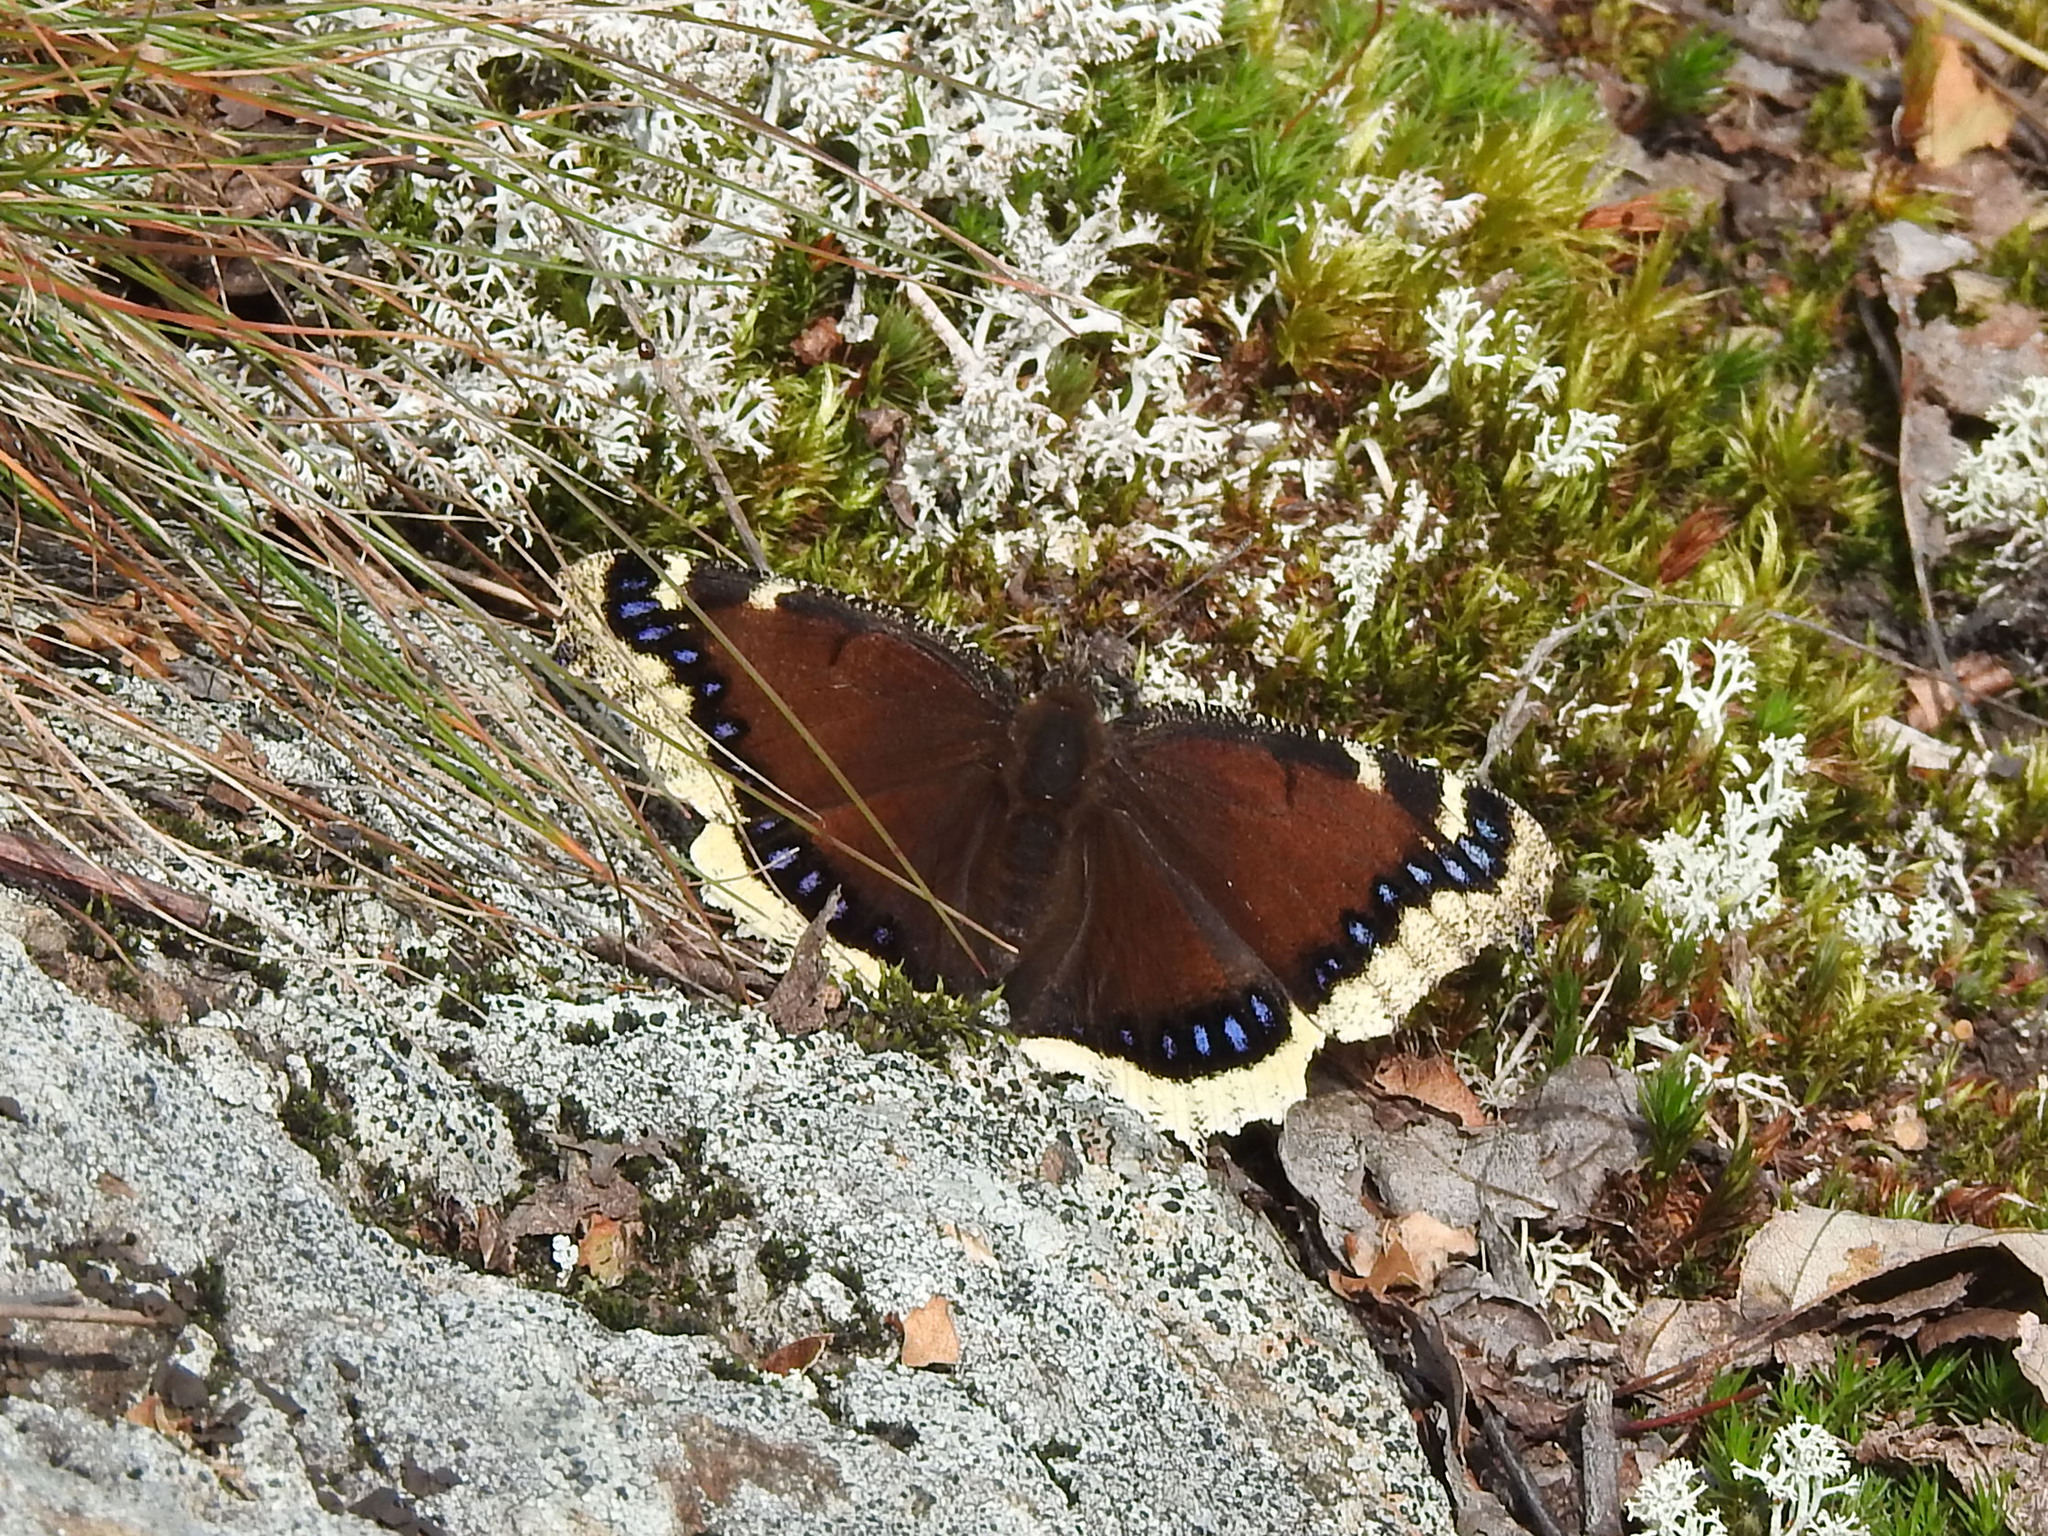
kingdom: Animalia
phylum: Arthropoda
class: Insecta
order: Lepidoptera
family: Nymphalidae
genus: Nymphalis
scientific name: Nymphalis antiopa
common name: Camberwell beauty
